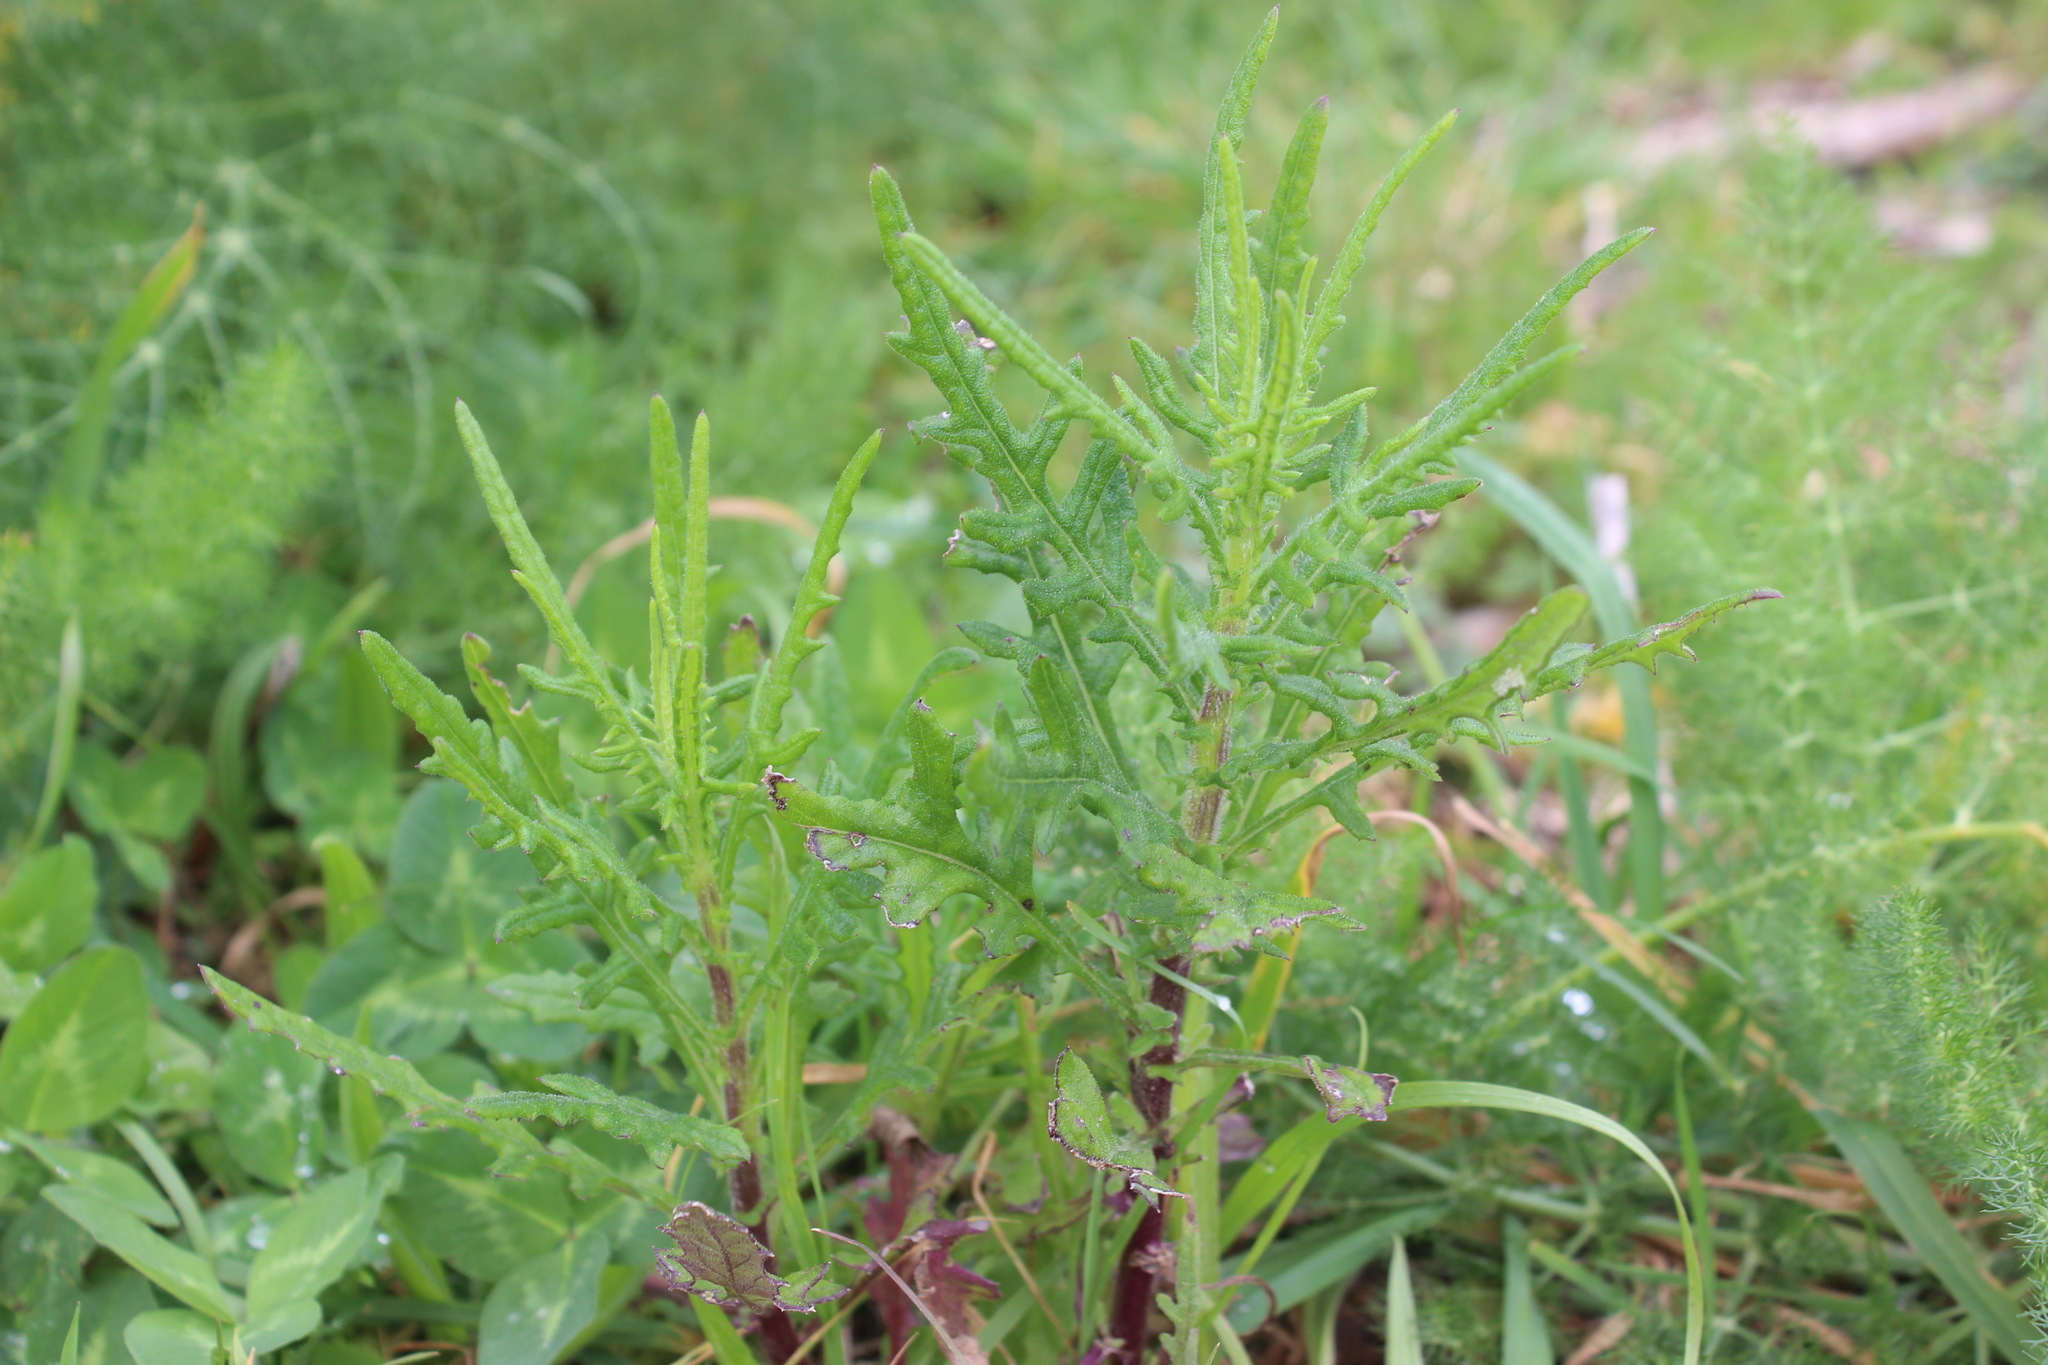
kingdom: Plantae
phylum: Tracheophyta
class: Magnoliopsida
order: Asterales
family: Asteraceae
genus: Senecio
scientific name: Senecio hispidulus
